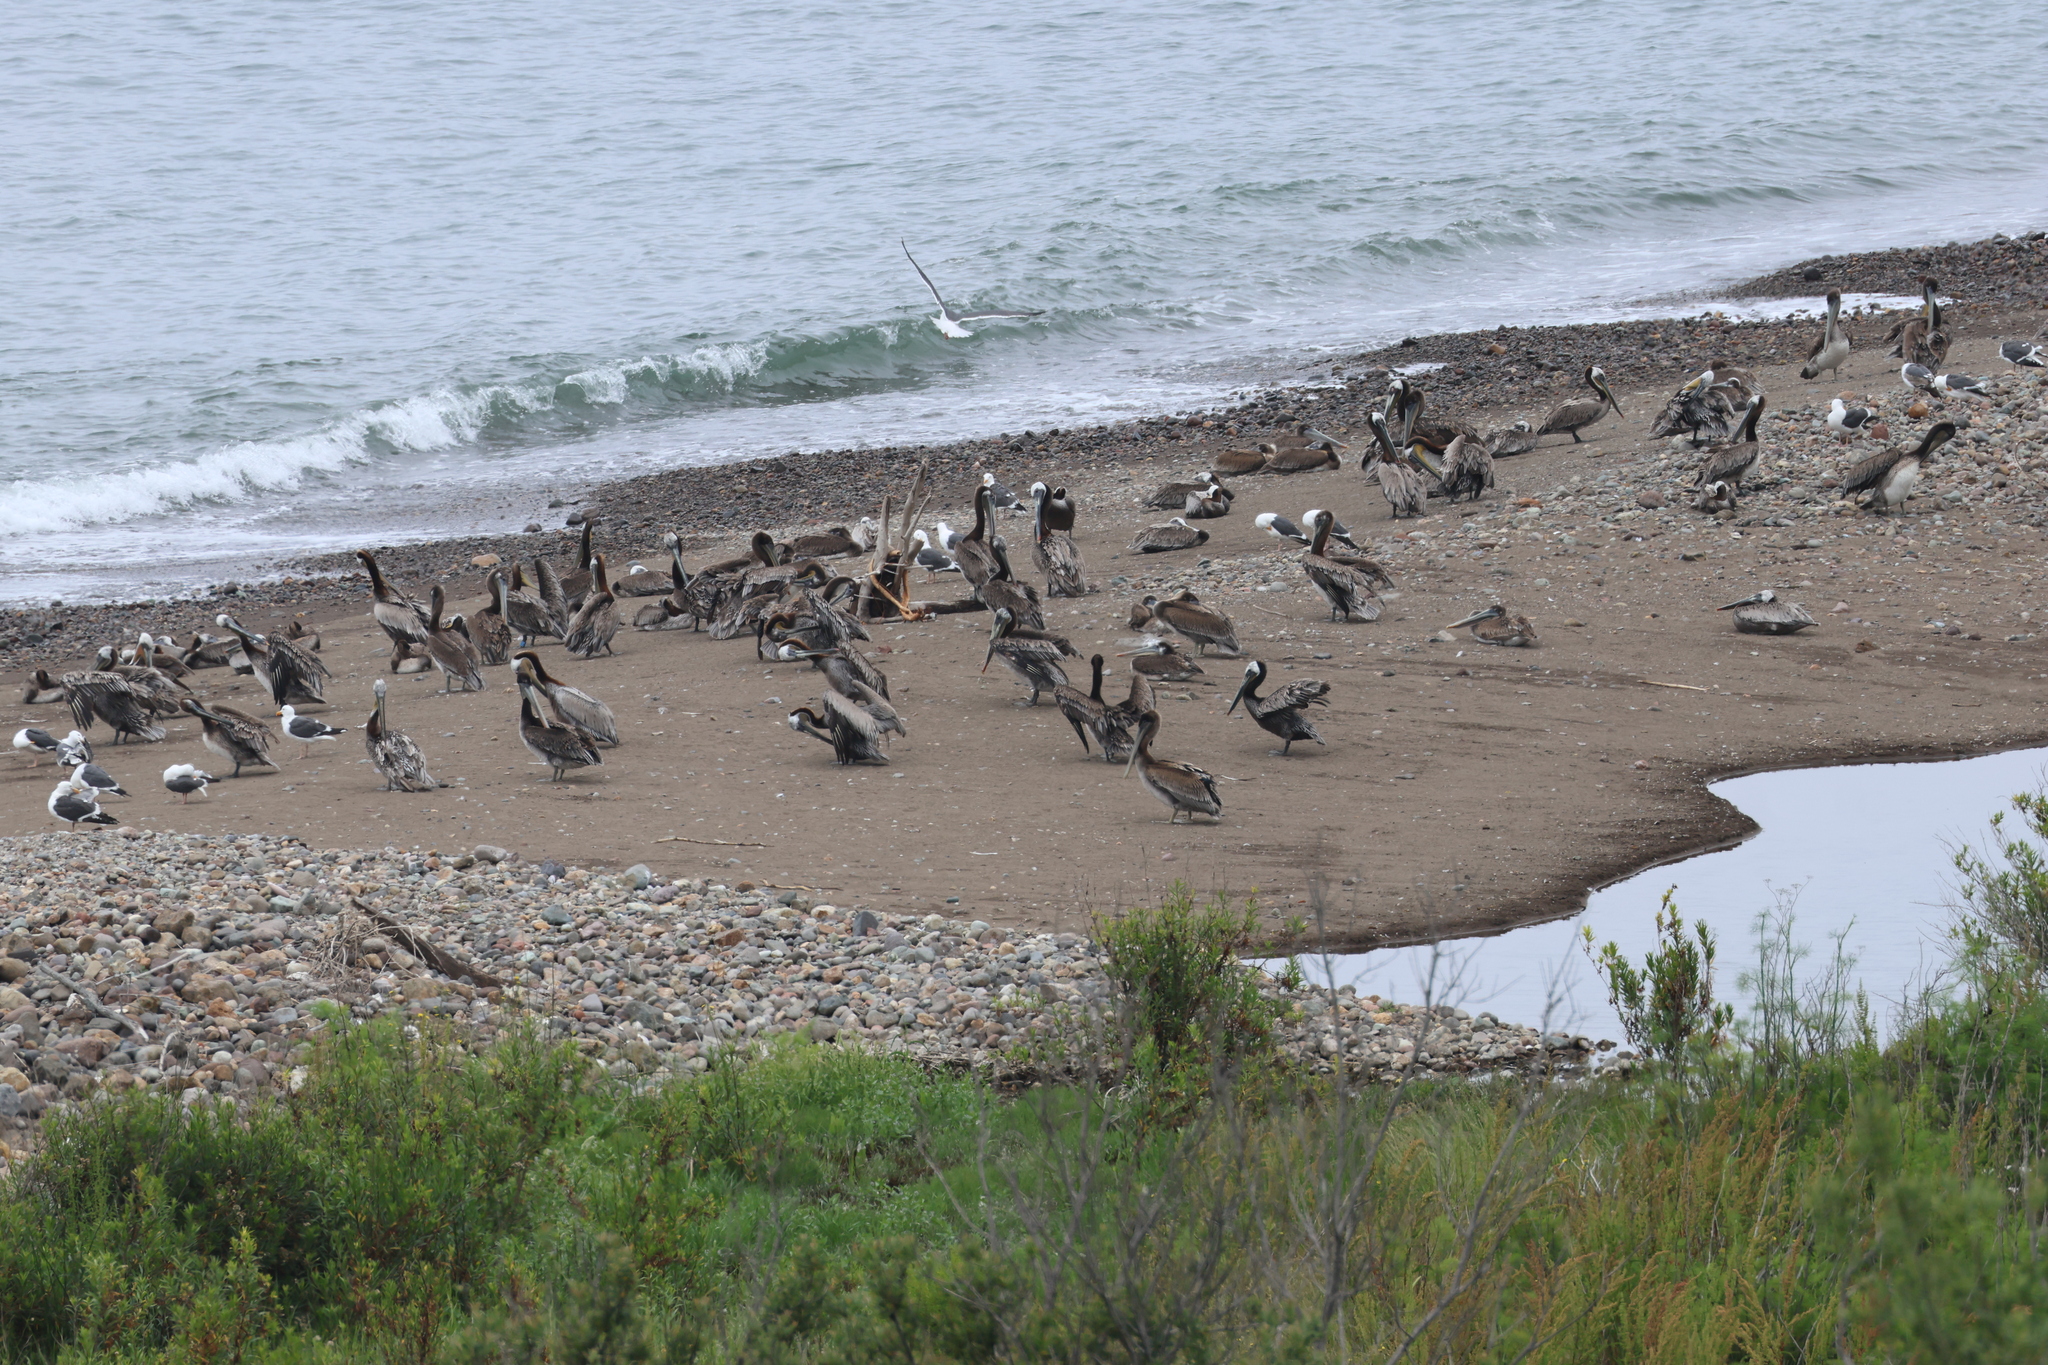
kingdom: Animalia
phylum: Chordata
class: Aves
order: Pelecaniformes
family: Pelecanidae
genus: Pelecanus
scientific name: Pelecanus occidentalis
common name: Brown pelican
